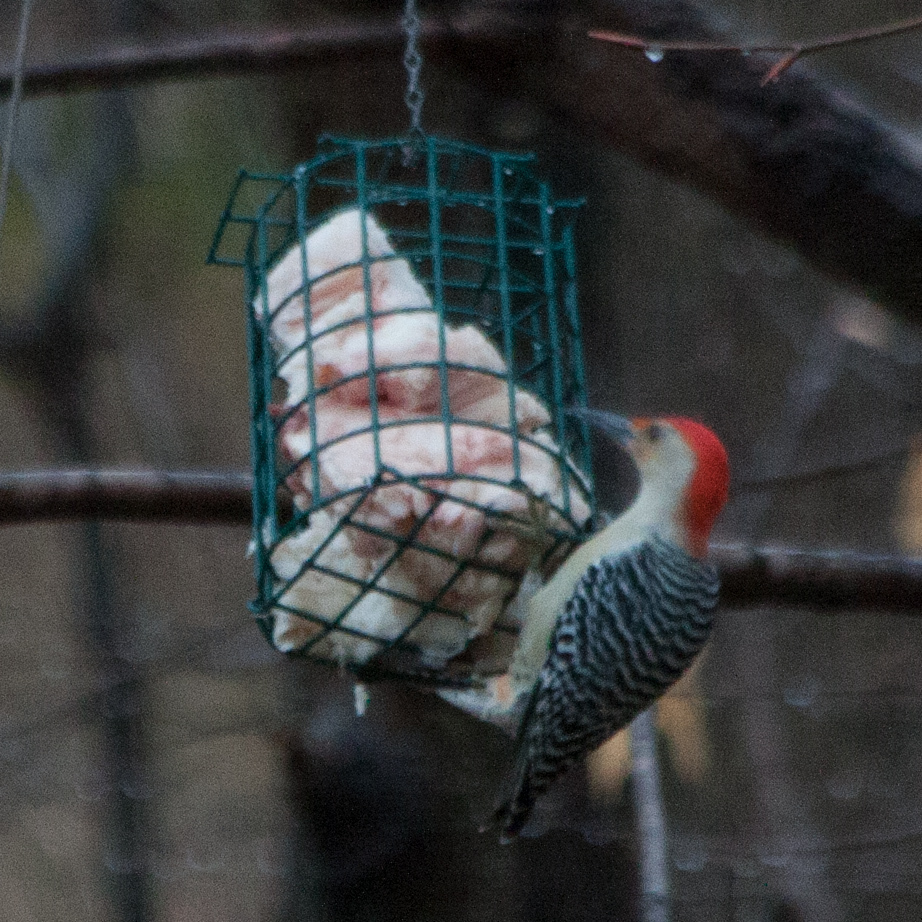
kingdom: Animalia
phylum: Chordata
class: Aves
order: Piciformes
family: Picidae
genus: Melanerpes
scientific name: Melanerpes carolinus
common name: Red-bellied woodpecker
